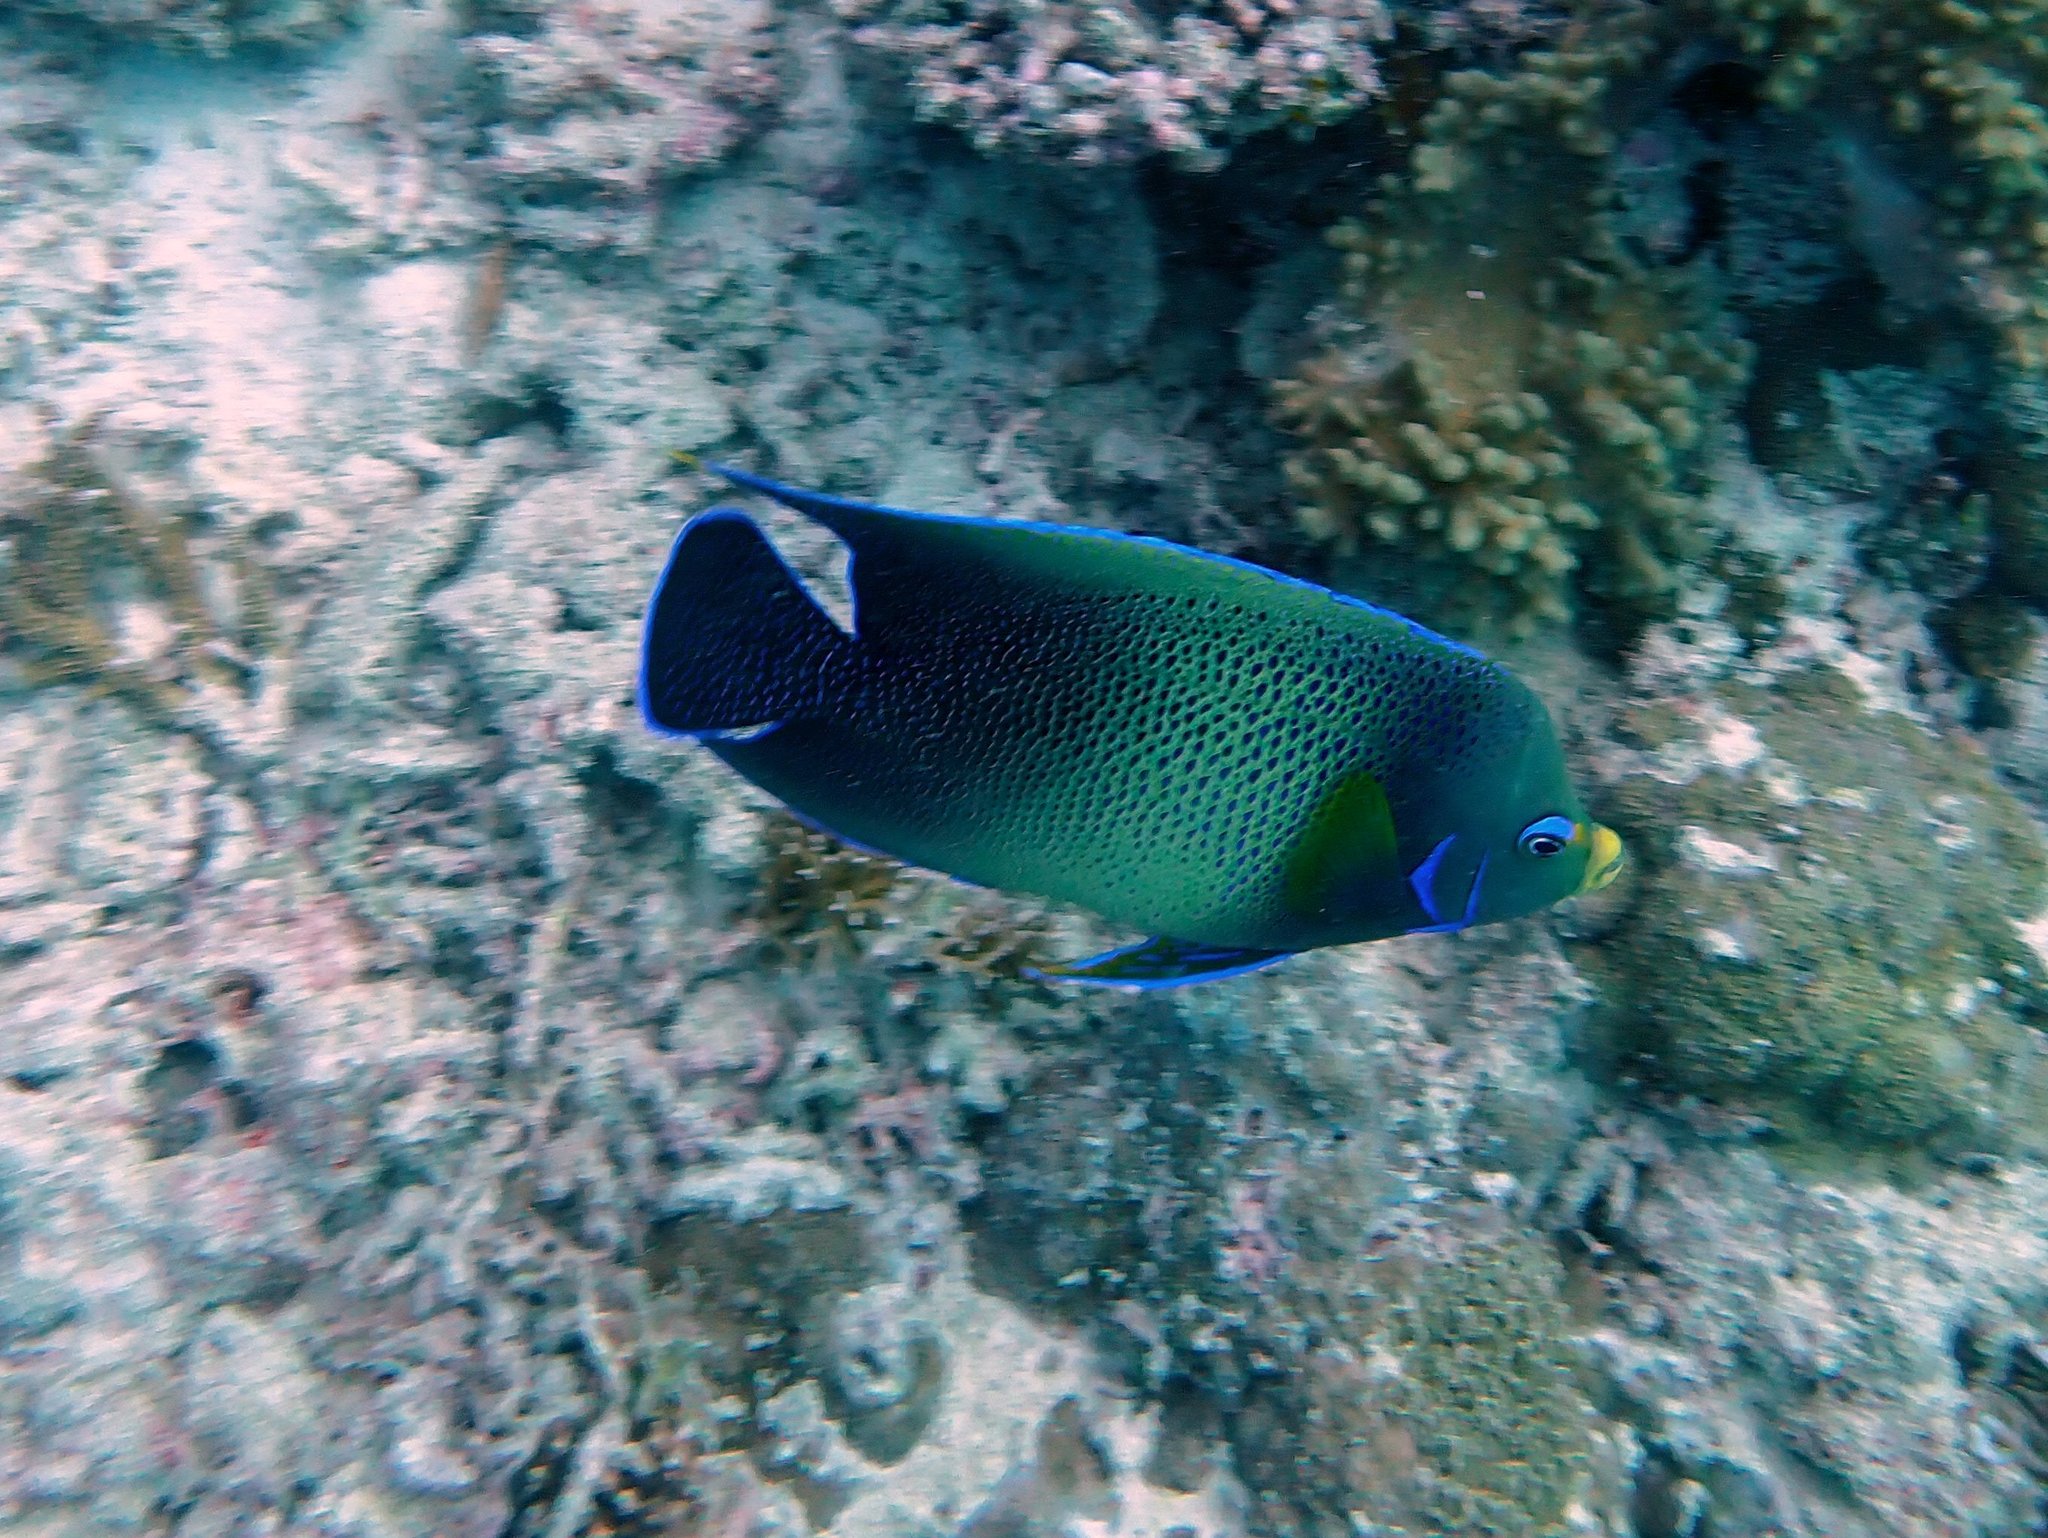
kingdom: Animalia
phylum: Chordata
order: Perciformes
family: Pomacanthidae
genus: Pomacanthus
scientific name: Pomacanthus semicirculatus
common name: Semicircle angelfish
